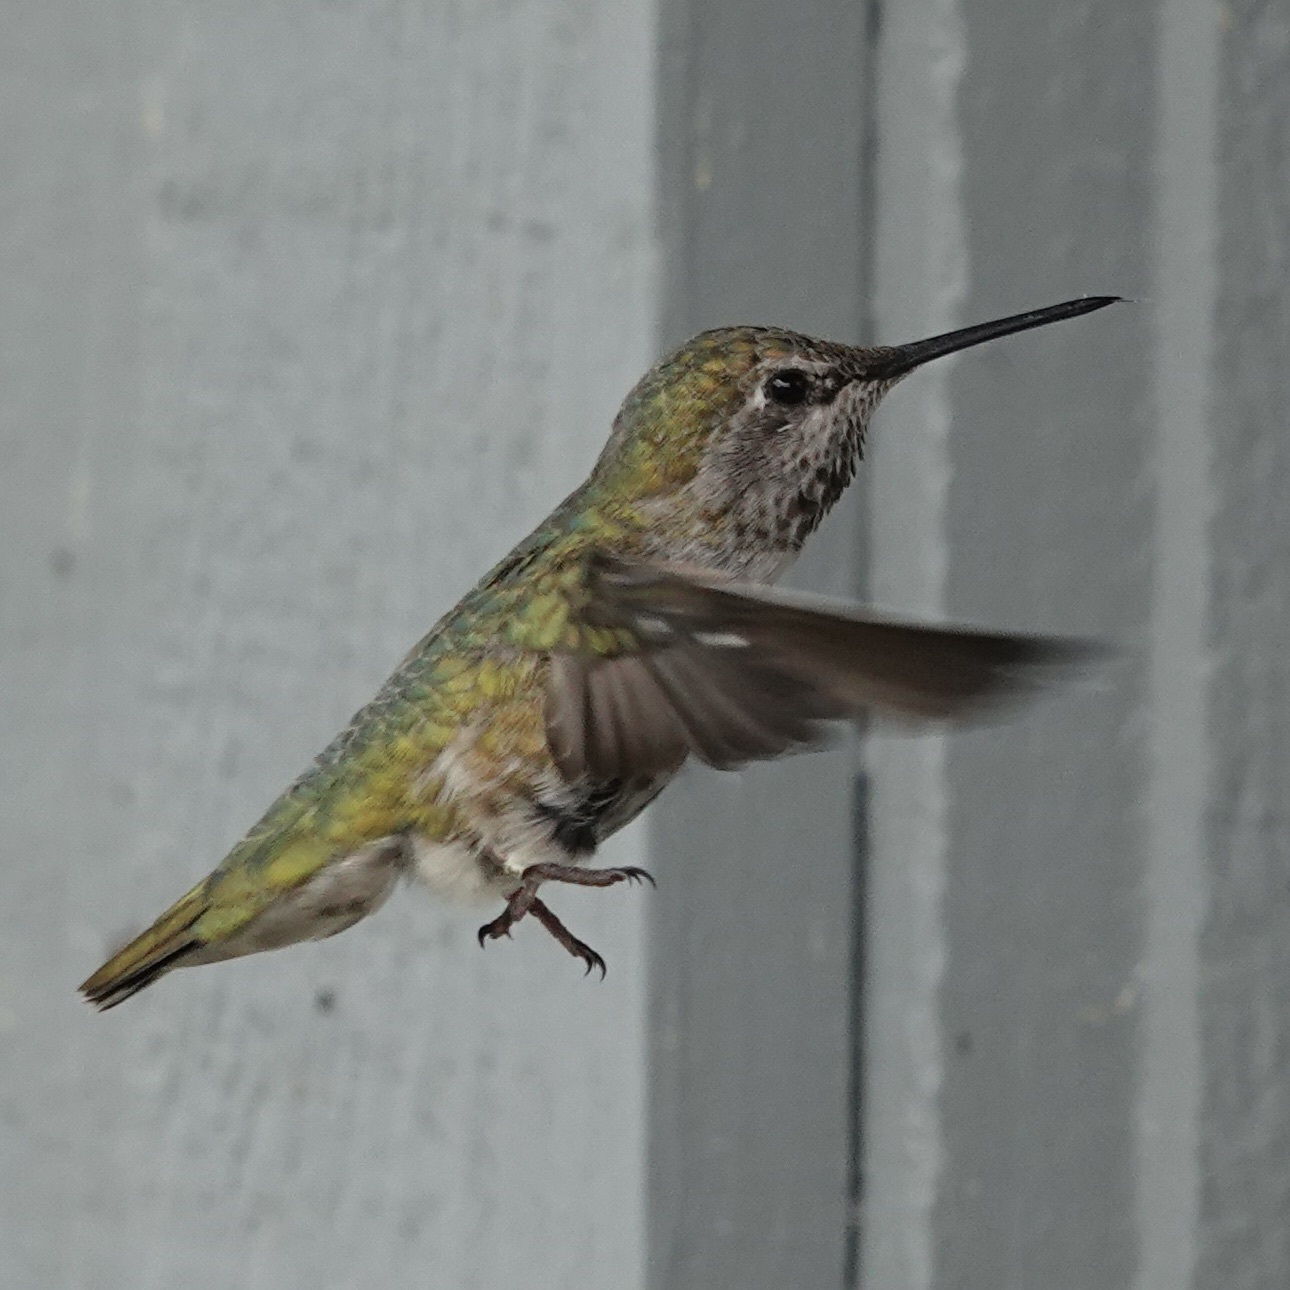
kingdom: Animalia
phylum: Chordata
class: Aves
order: Apodiformes
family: Trochilidae
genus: Calypte
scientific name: Calypte anna
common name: Anna's hummingbird
